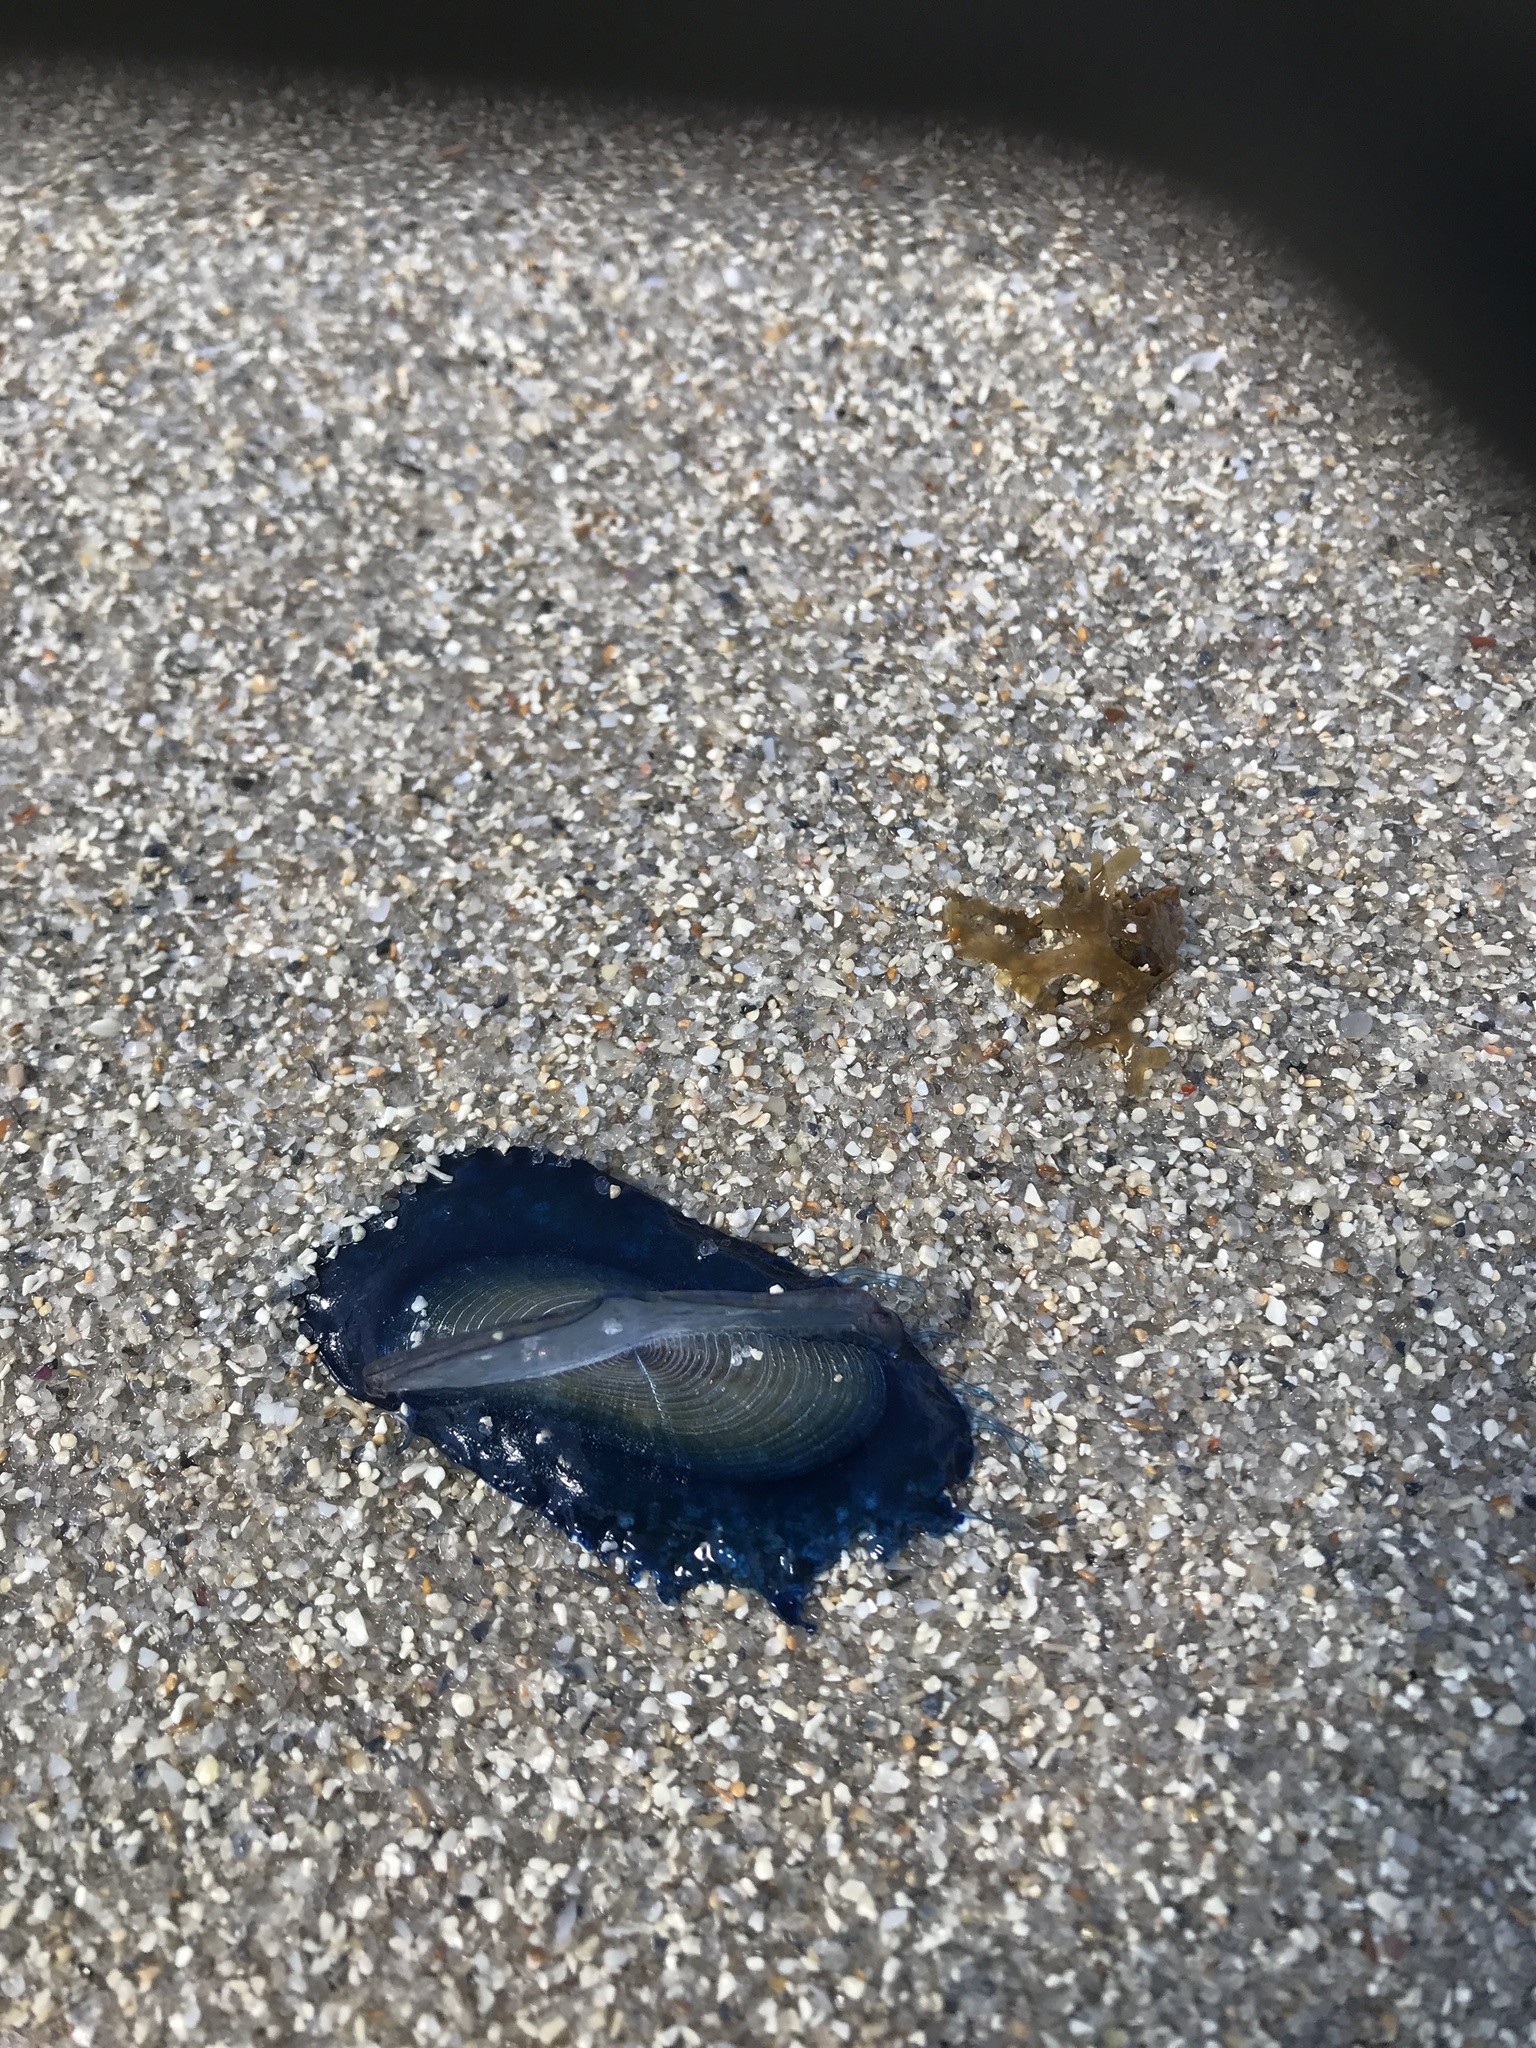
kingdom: Animalia
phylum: Cnidaria
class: Hydrozoa
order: Anthoathecata
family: Porpitidae
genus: Velella
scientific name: Velella velella
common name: By-the-wind-sailor
